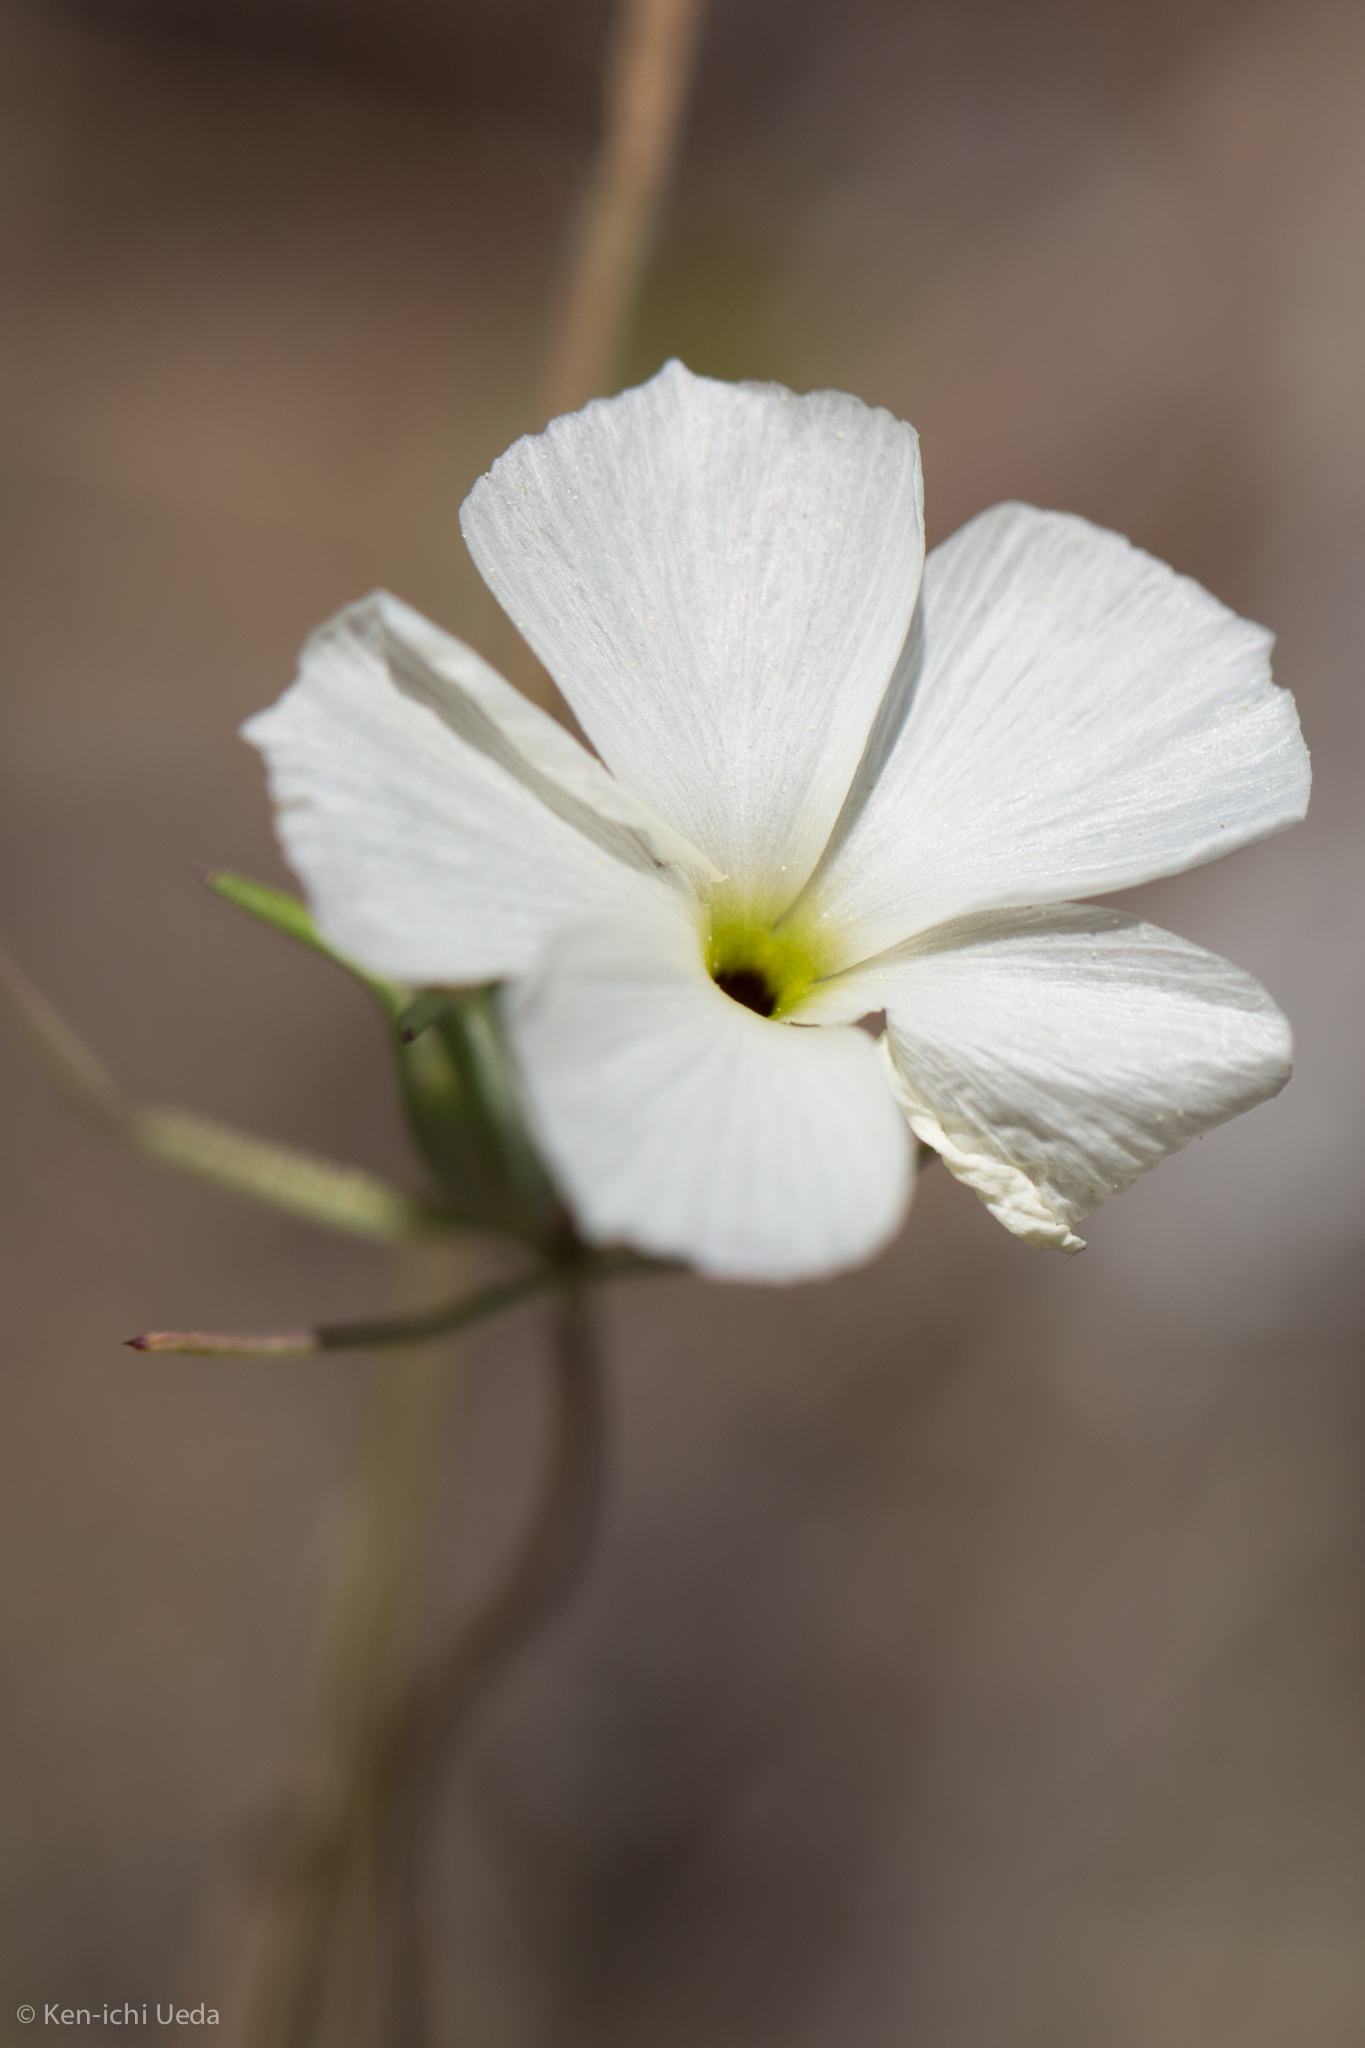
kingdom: Plantae
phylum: Tracheophyta
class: Magnoliopsida
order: Ericales
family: Polemoniaceae
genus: Linanthus
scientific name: Linanthus dichotomus
